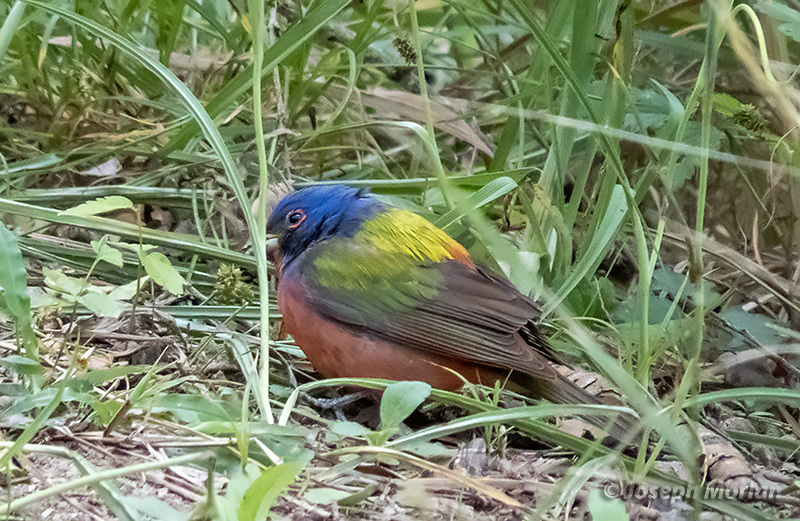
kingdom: Animalia
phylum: Chordata
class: Aves
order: Passeriformes
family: Cardinalidae
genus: Passerina
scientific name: Passerina ciris
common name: Painted bunting
